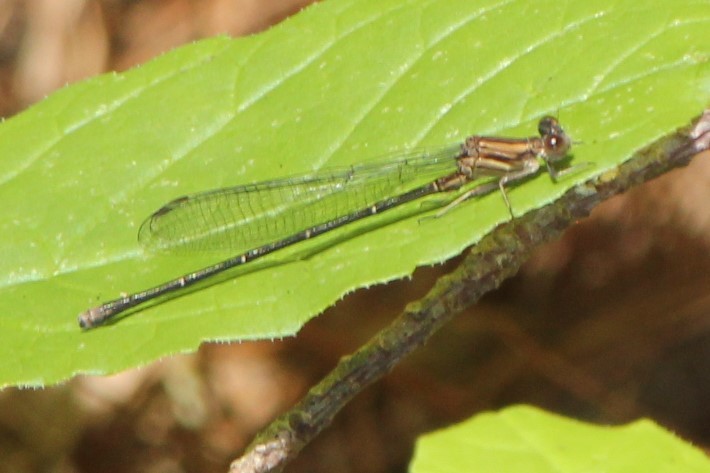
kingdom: Animalia
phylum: Arthropoda
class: Insecta
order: Odonata
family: Coenagrionidae
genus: Argia
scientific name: Argia moesta
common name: Powdered dancer
